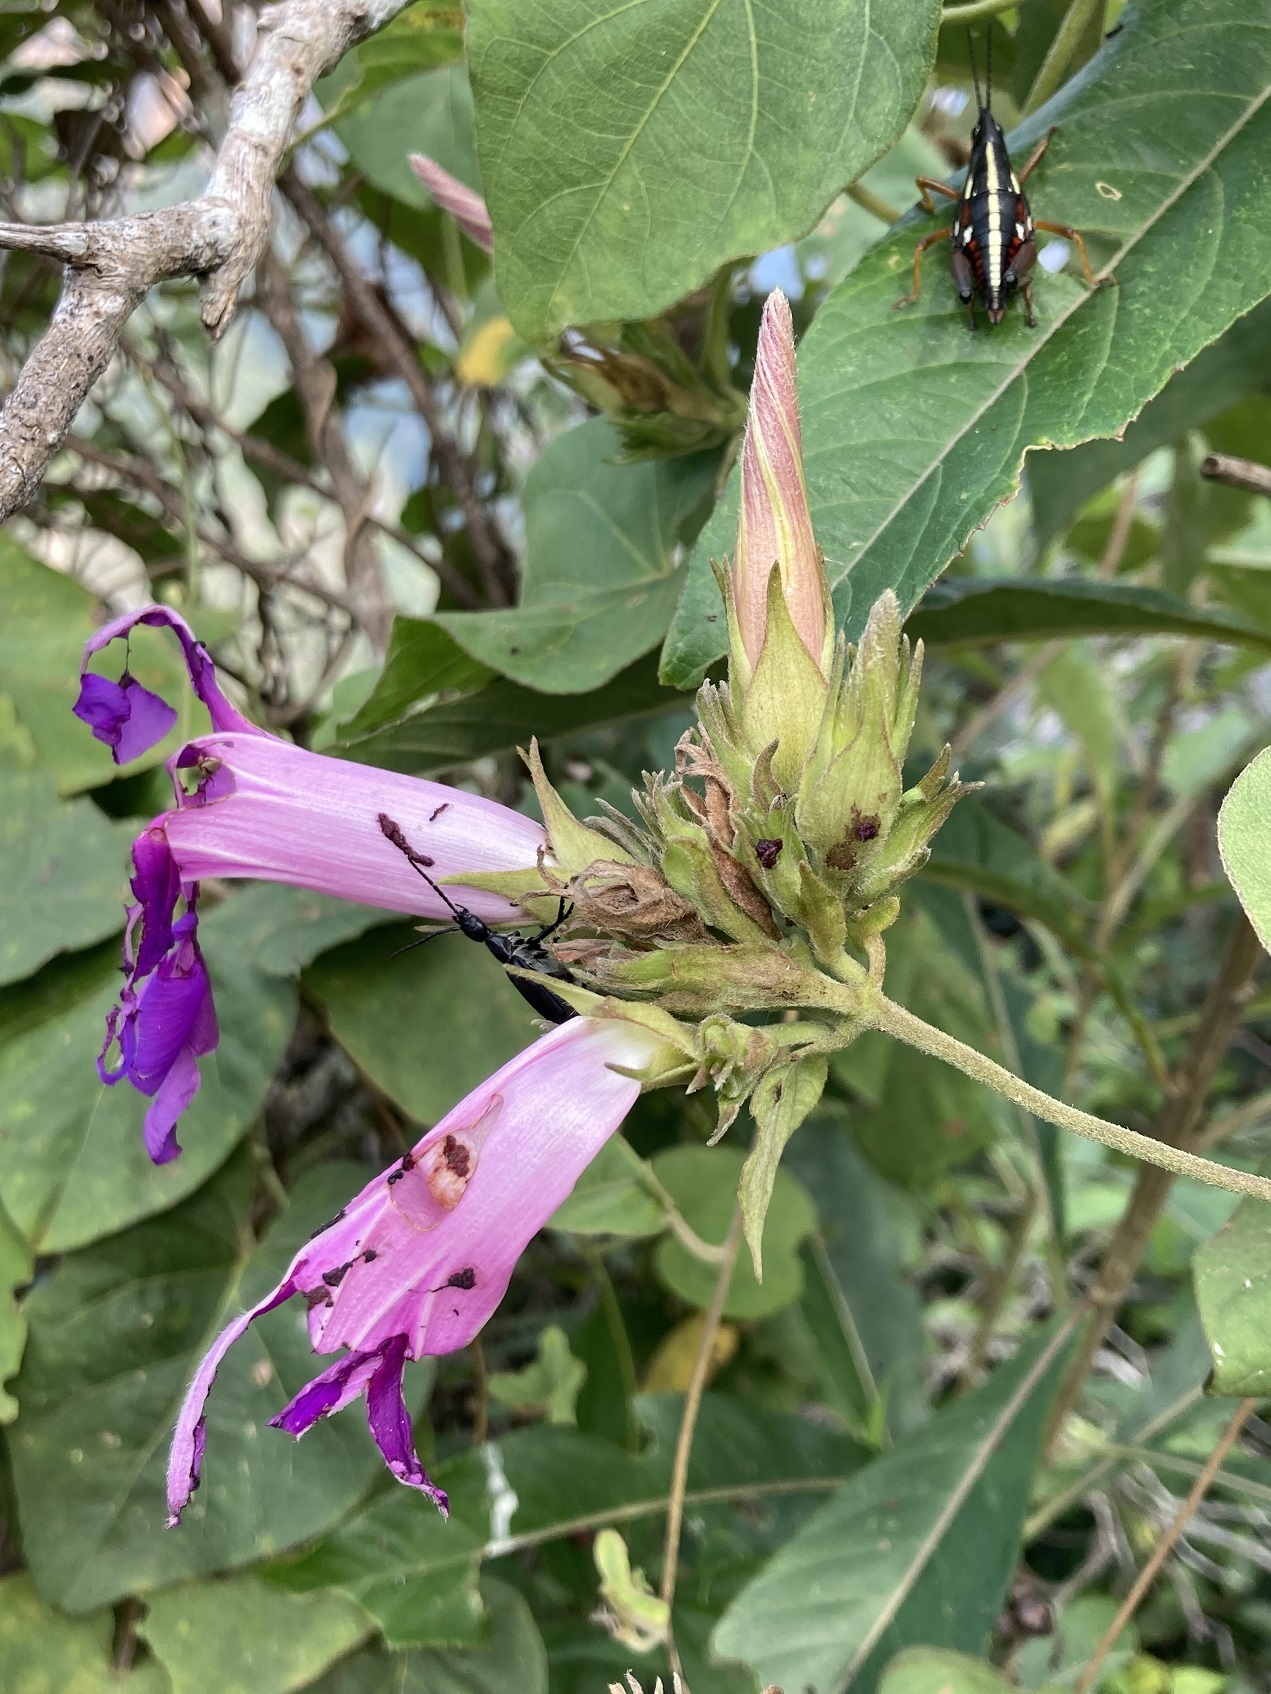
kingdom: Plantae
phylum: Tracheophyta
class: Magnoliopsida
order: Solanales
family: Convolvulaceae
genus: Ipomoea
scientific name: Ipomoea indica
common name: Blue dawnflower
